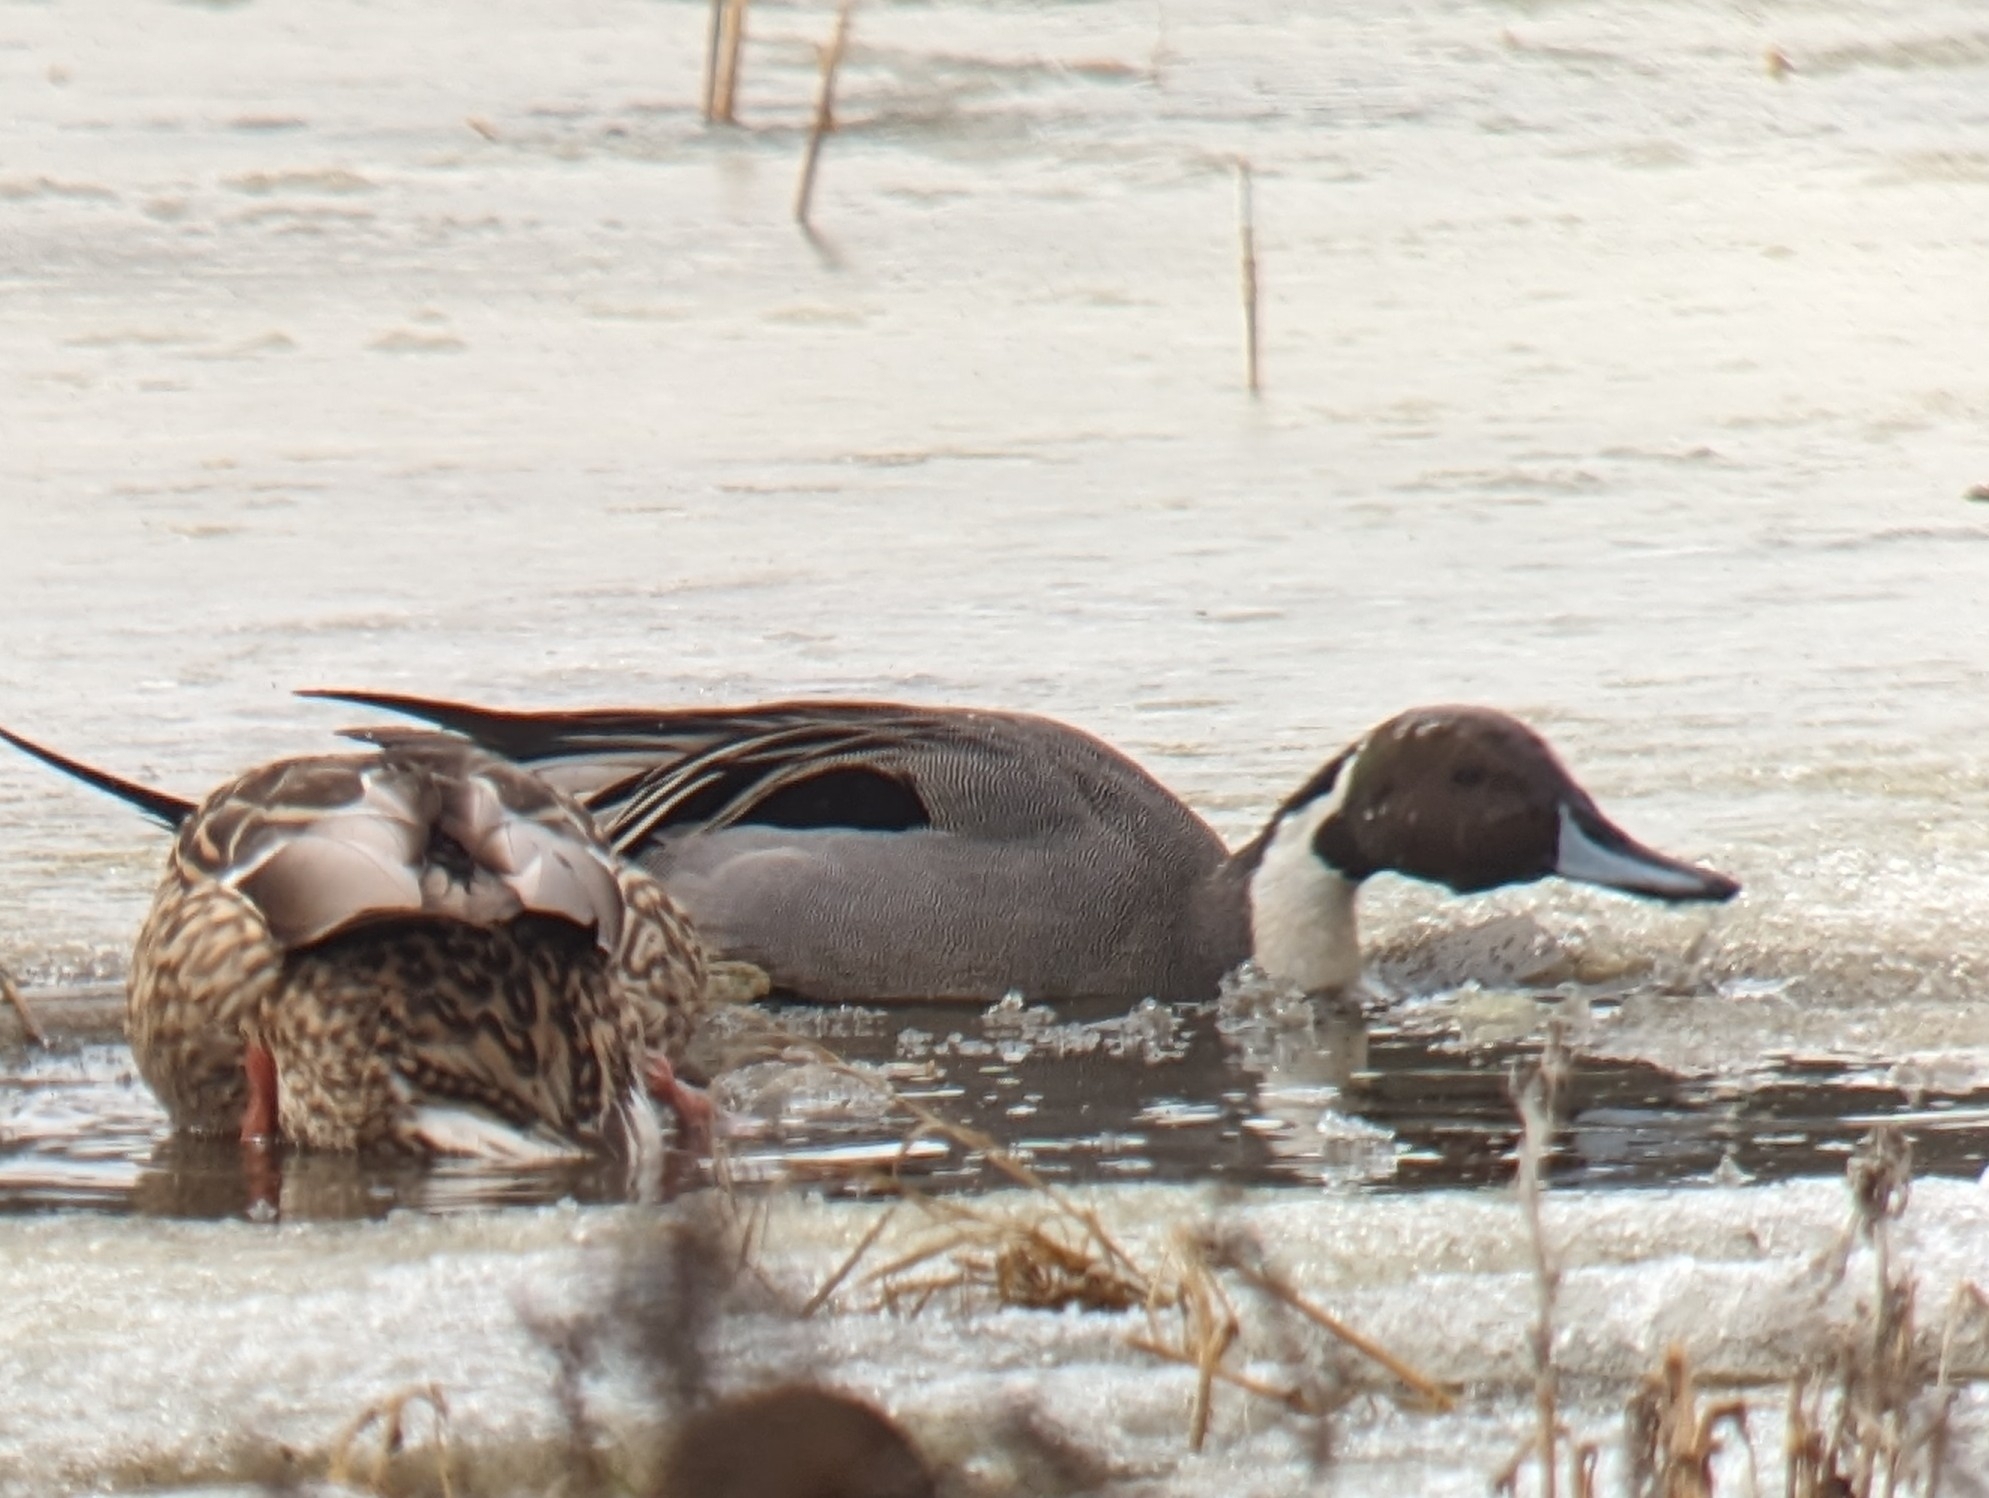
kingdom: Animalia
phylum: Chordata
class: Aves
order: Anseriformes
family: Anatidae
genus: Anas
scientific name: Anas acuta
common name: Northern pintail
